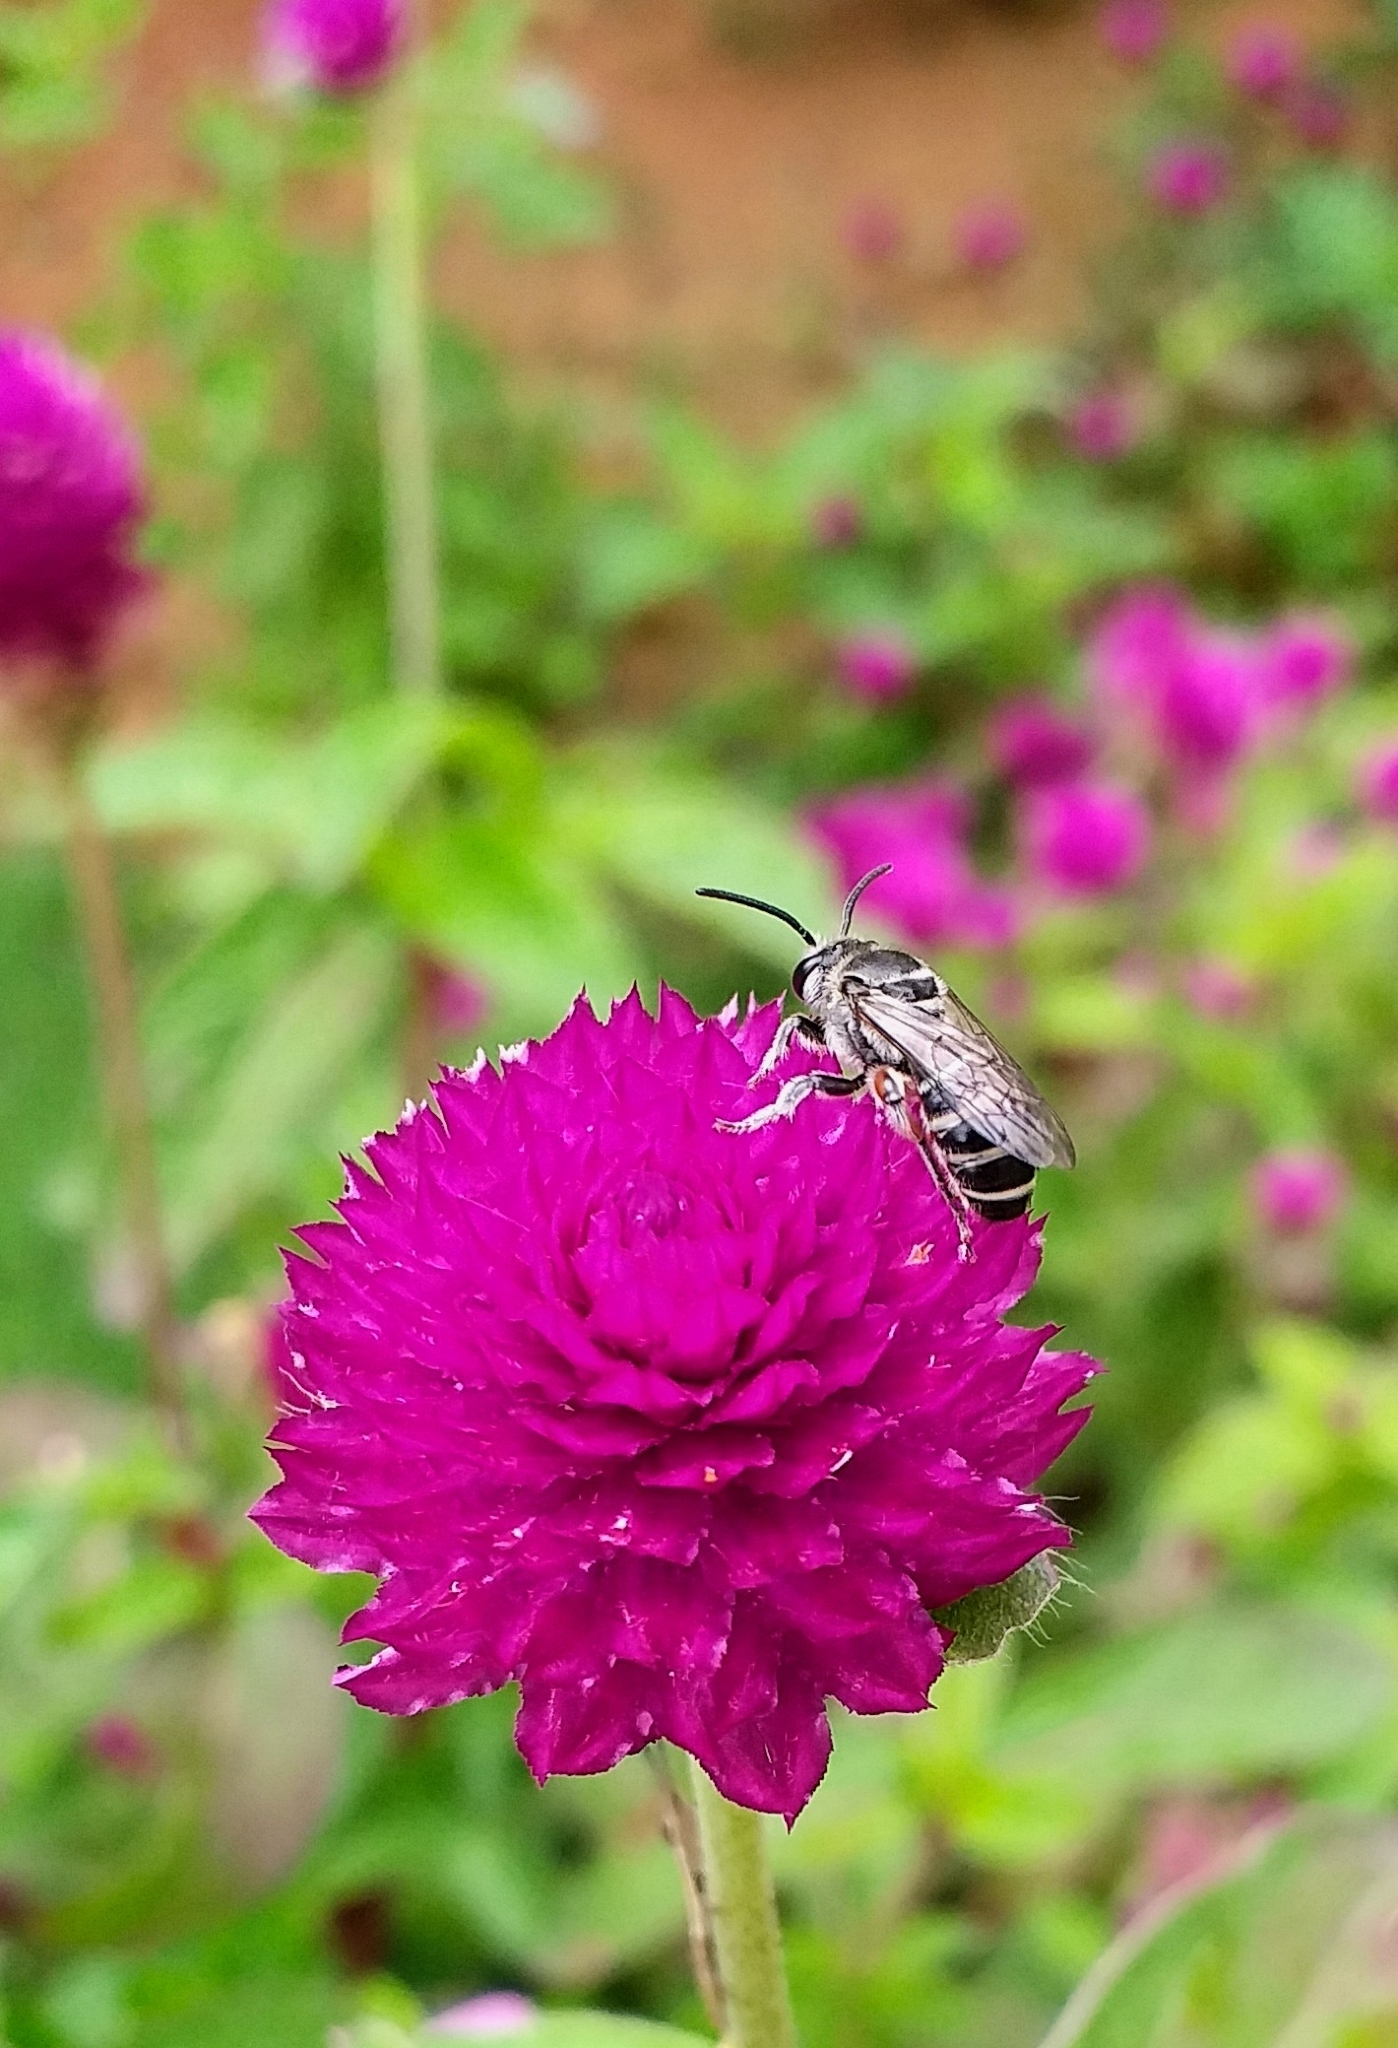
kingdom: Animalia
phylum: Arthropoda
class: Insecta
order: Hymenoptera
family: Halictidae
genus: Nomia
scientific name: Nomia westwoodi
